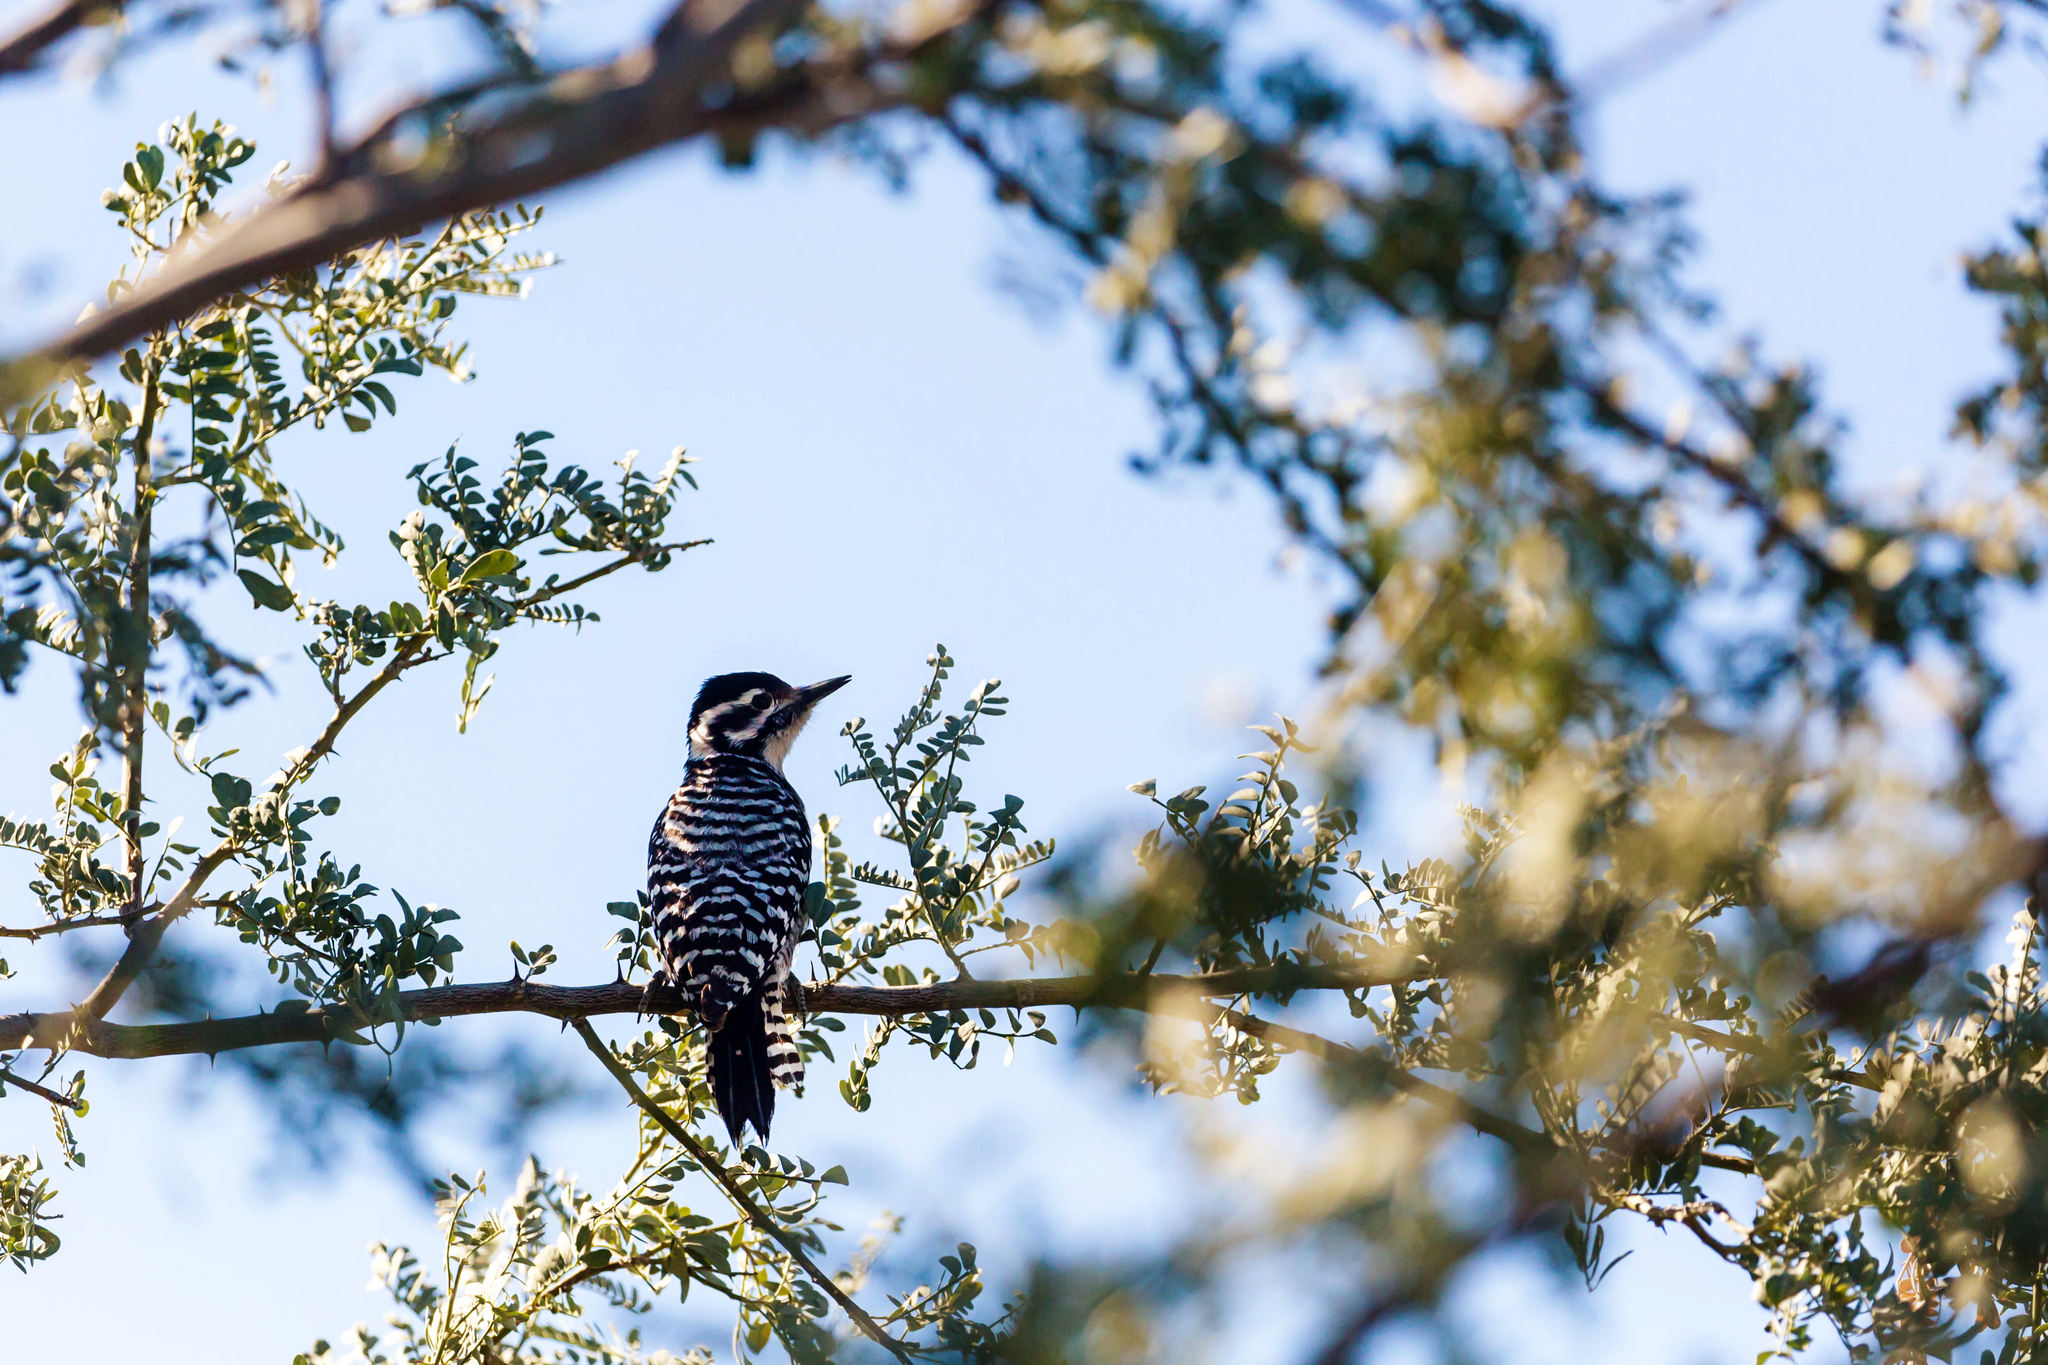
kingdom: Animalia
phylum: Chordata
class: Aves
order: Piciformes
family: Picidae
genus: Dryobates
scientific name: Dryobates scalaris
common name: Ladder-backed woodpecker
